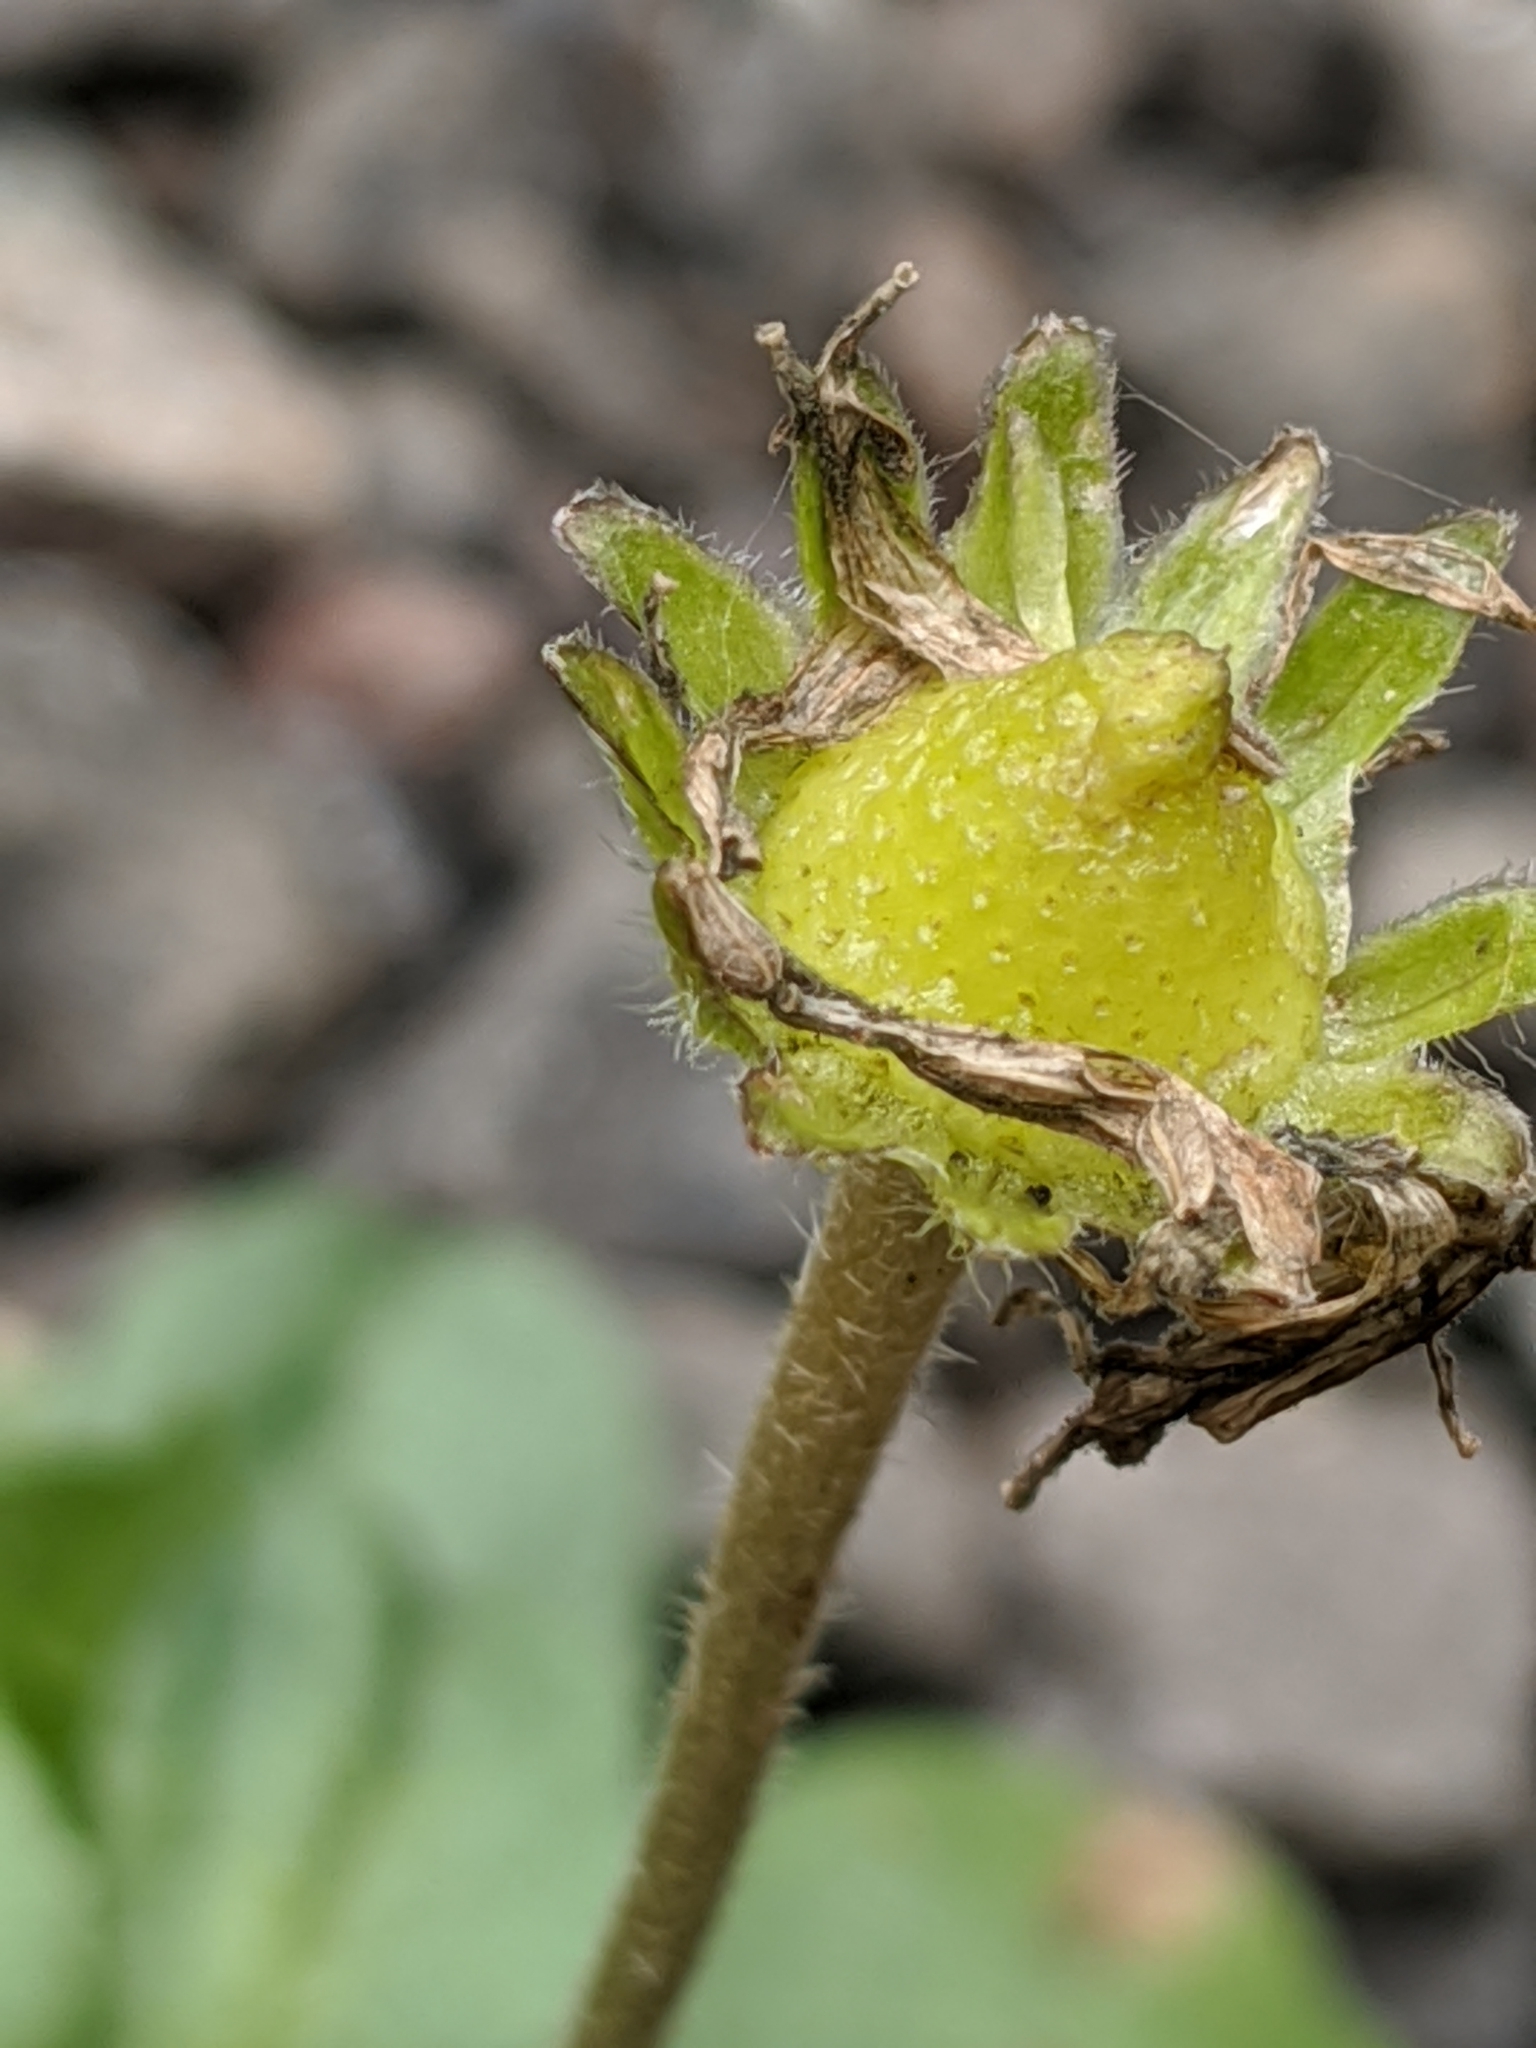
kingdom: Plantae
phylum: Tracheophyta
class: Magnoliopsida
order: Asterales
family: Asteraceae
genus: Bellis
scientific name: Bellis perennis
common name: Lawndaisy
